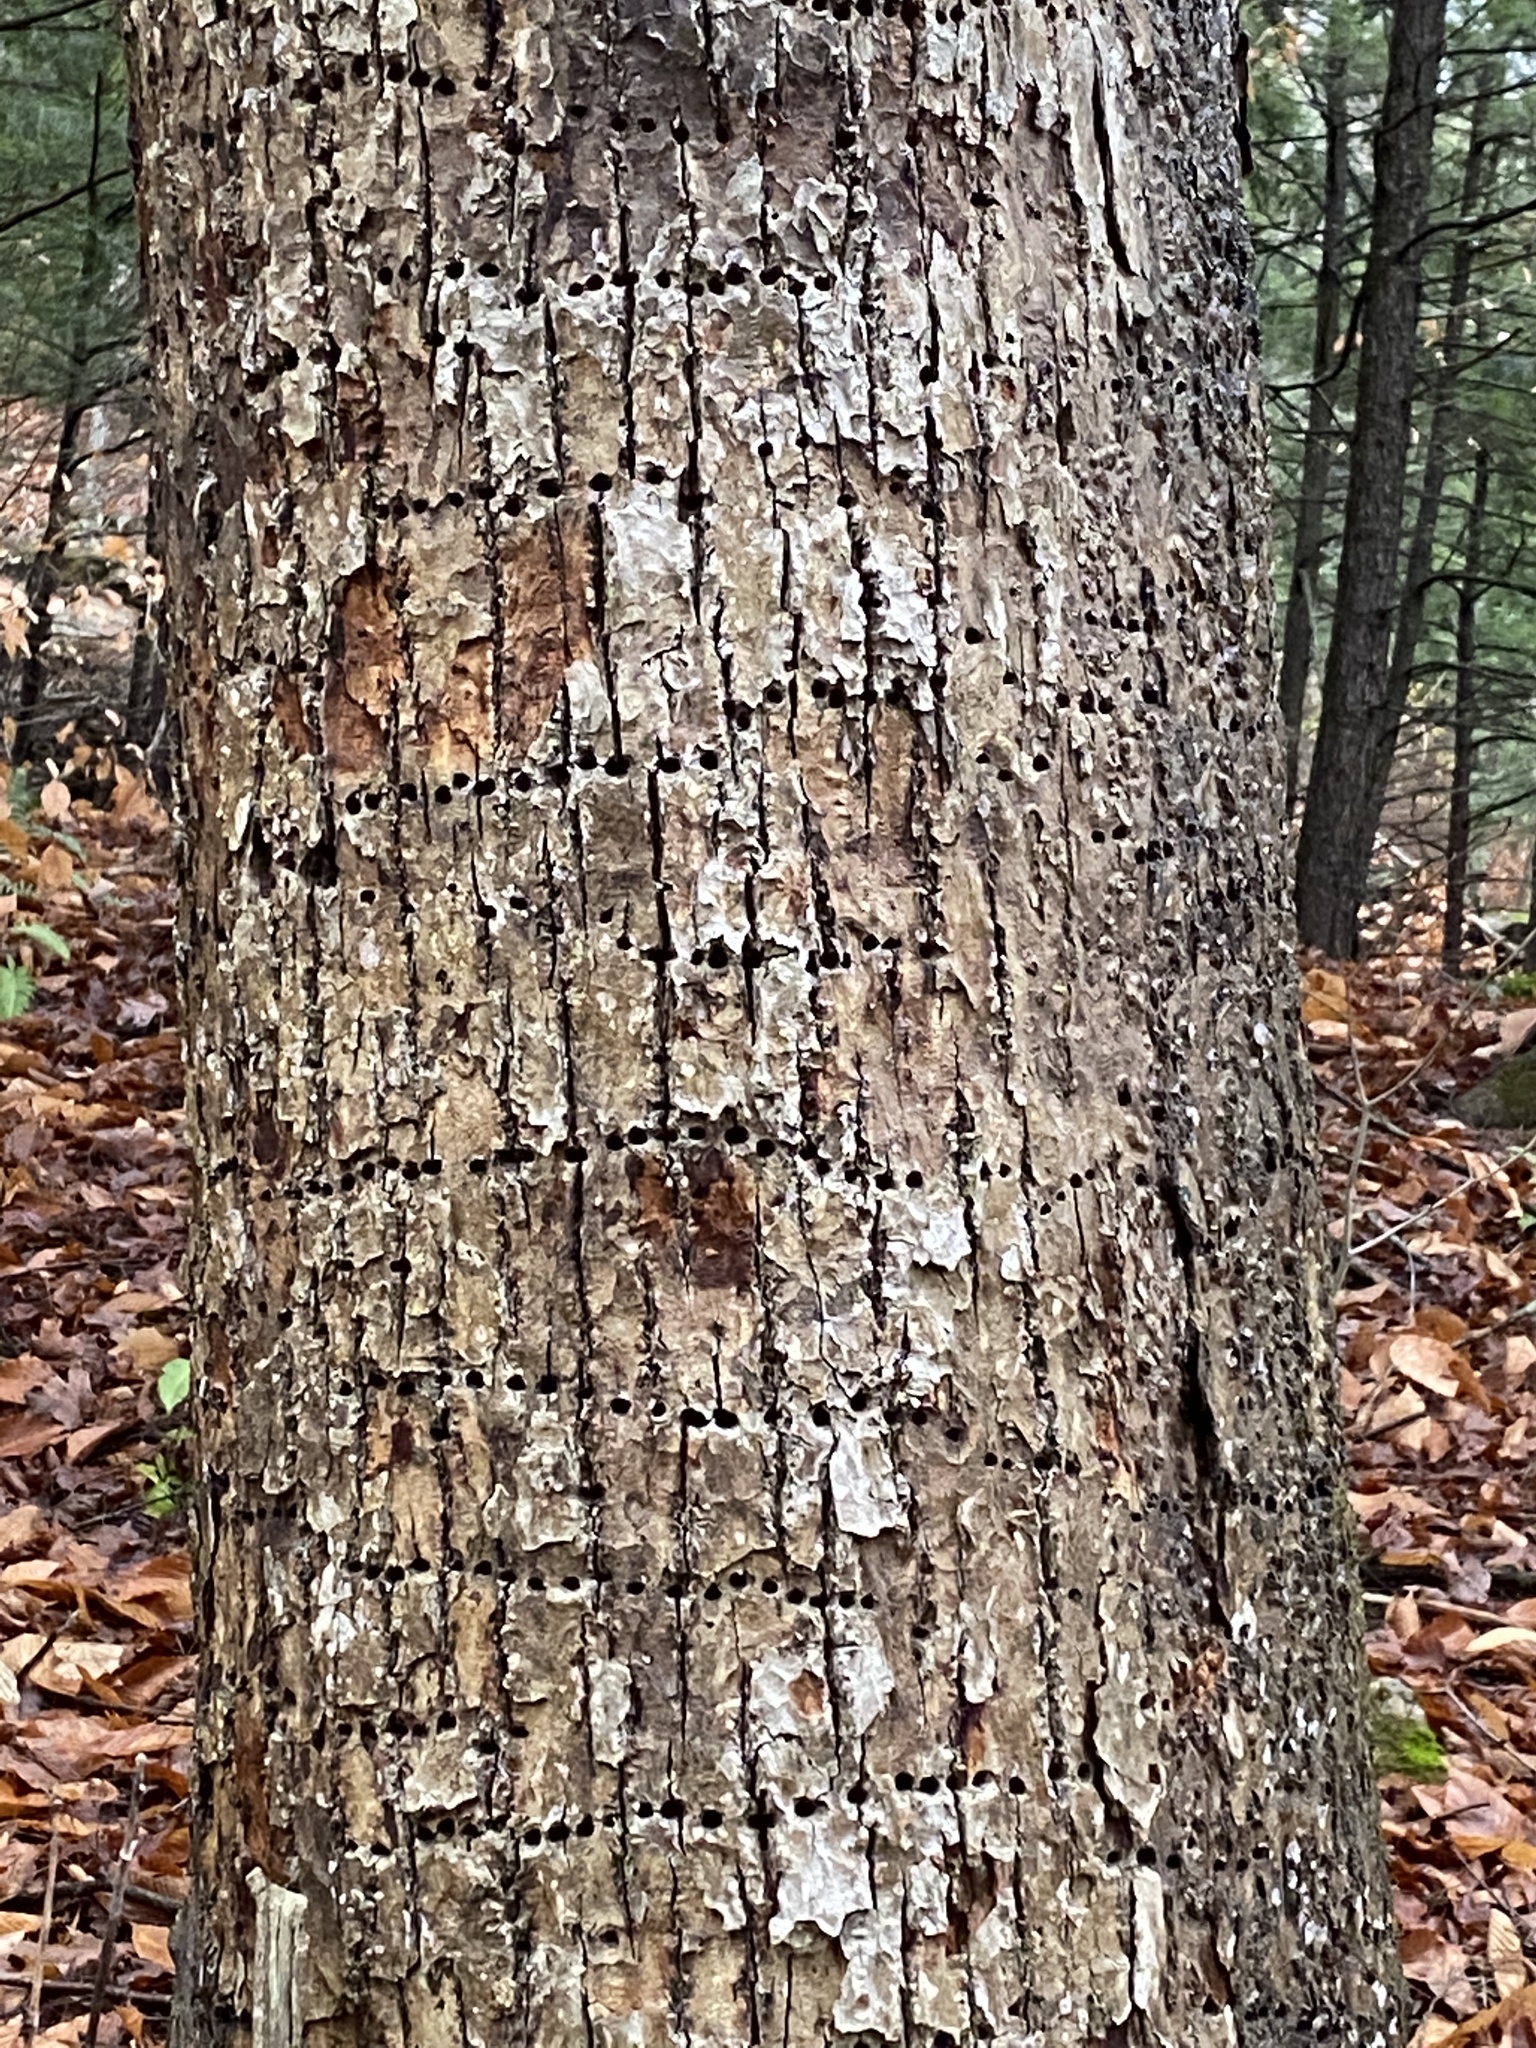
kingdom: Animalia
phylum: Chordata
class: Aves
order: Piciformes
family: Picidae
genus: Sphyrapicus
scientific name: Sphyrapicus varius
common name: Yellow-bellied sapsucker
